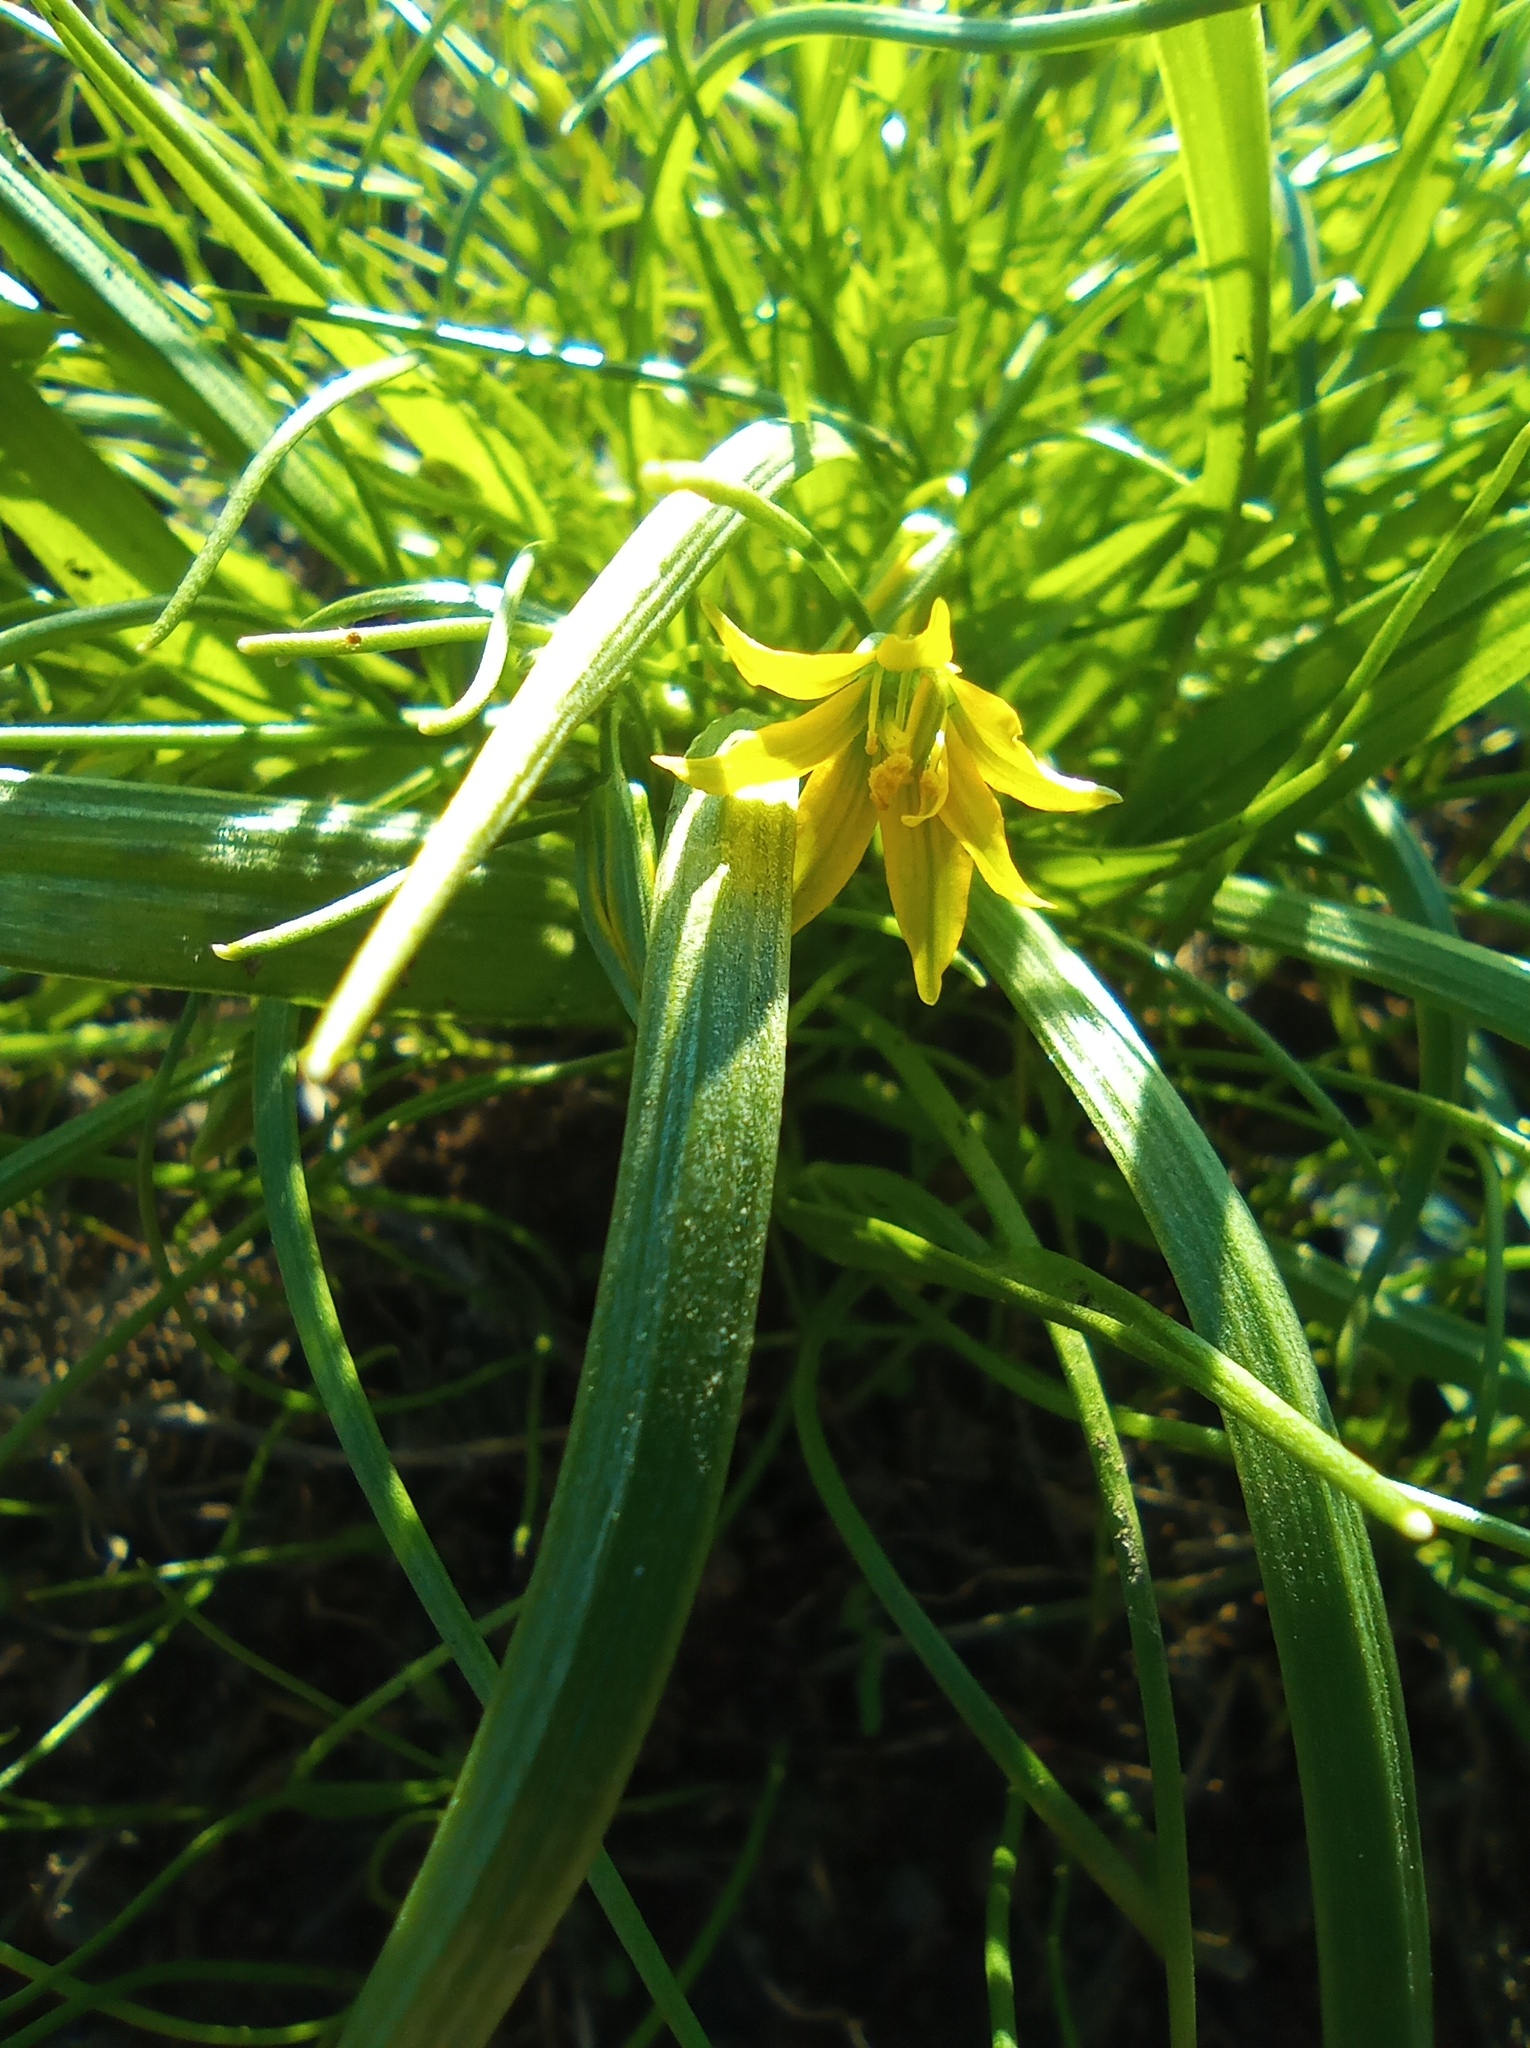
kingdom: Plantae
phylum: Tracheophyta
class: Liliopsida
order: Liliales
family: Liliaceae
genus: Gagea
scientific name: Gagea minima
